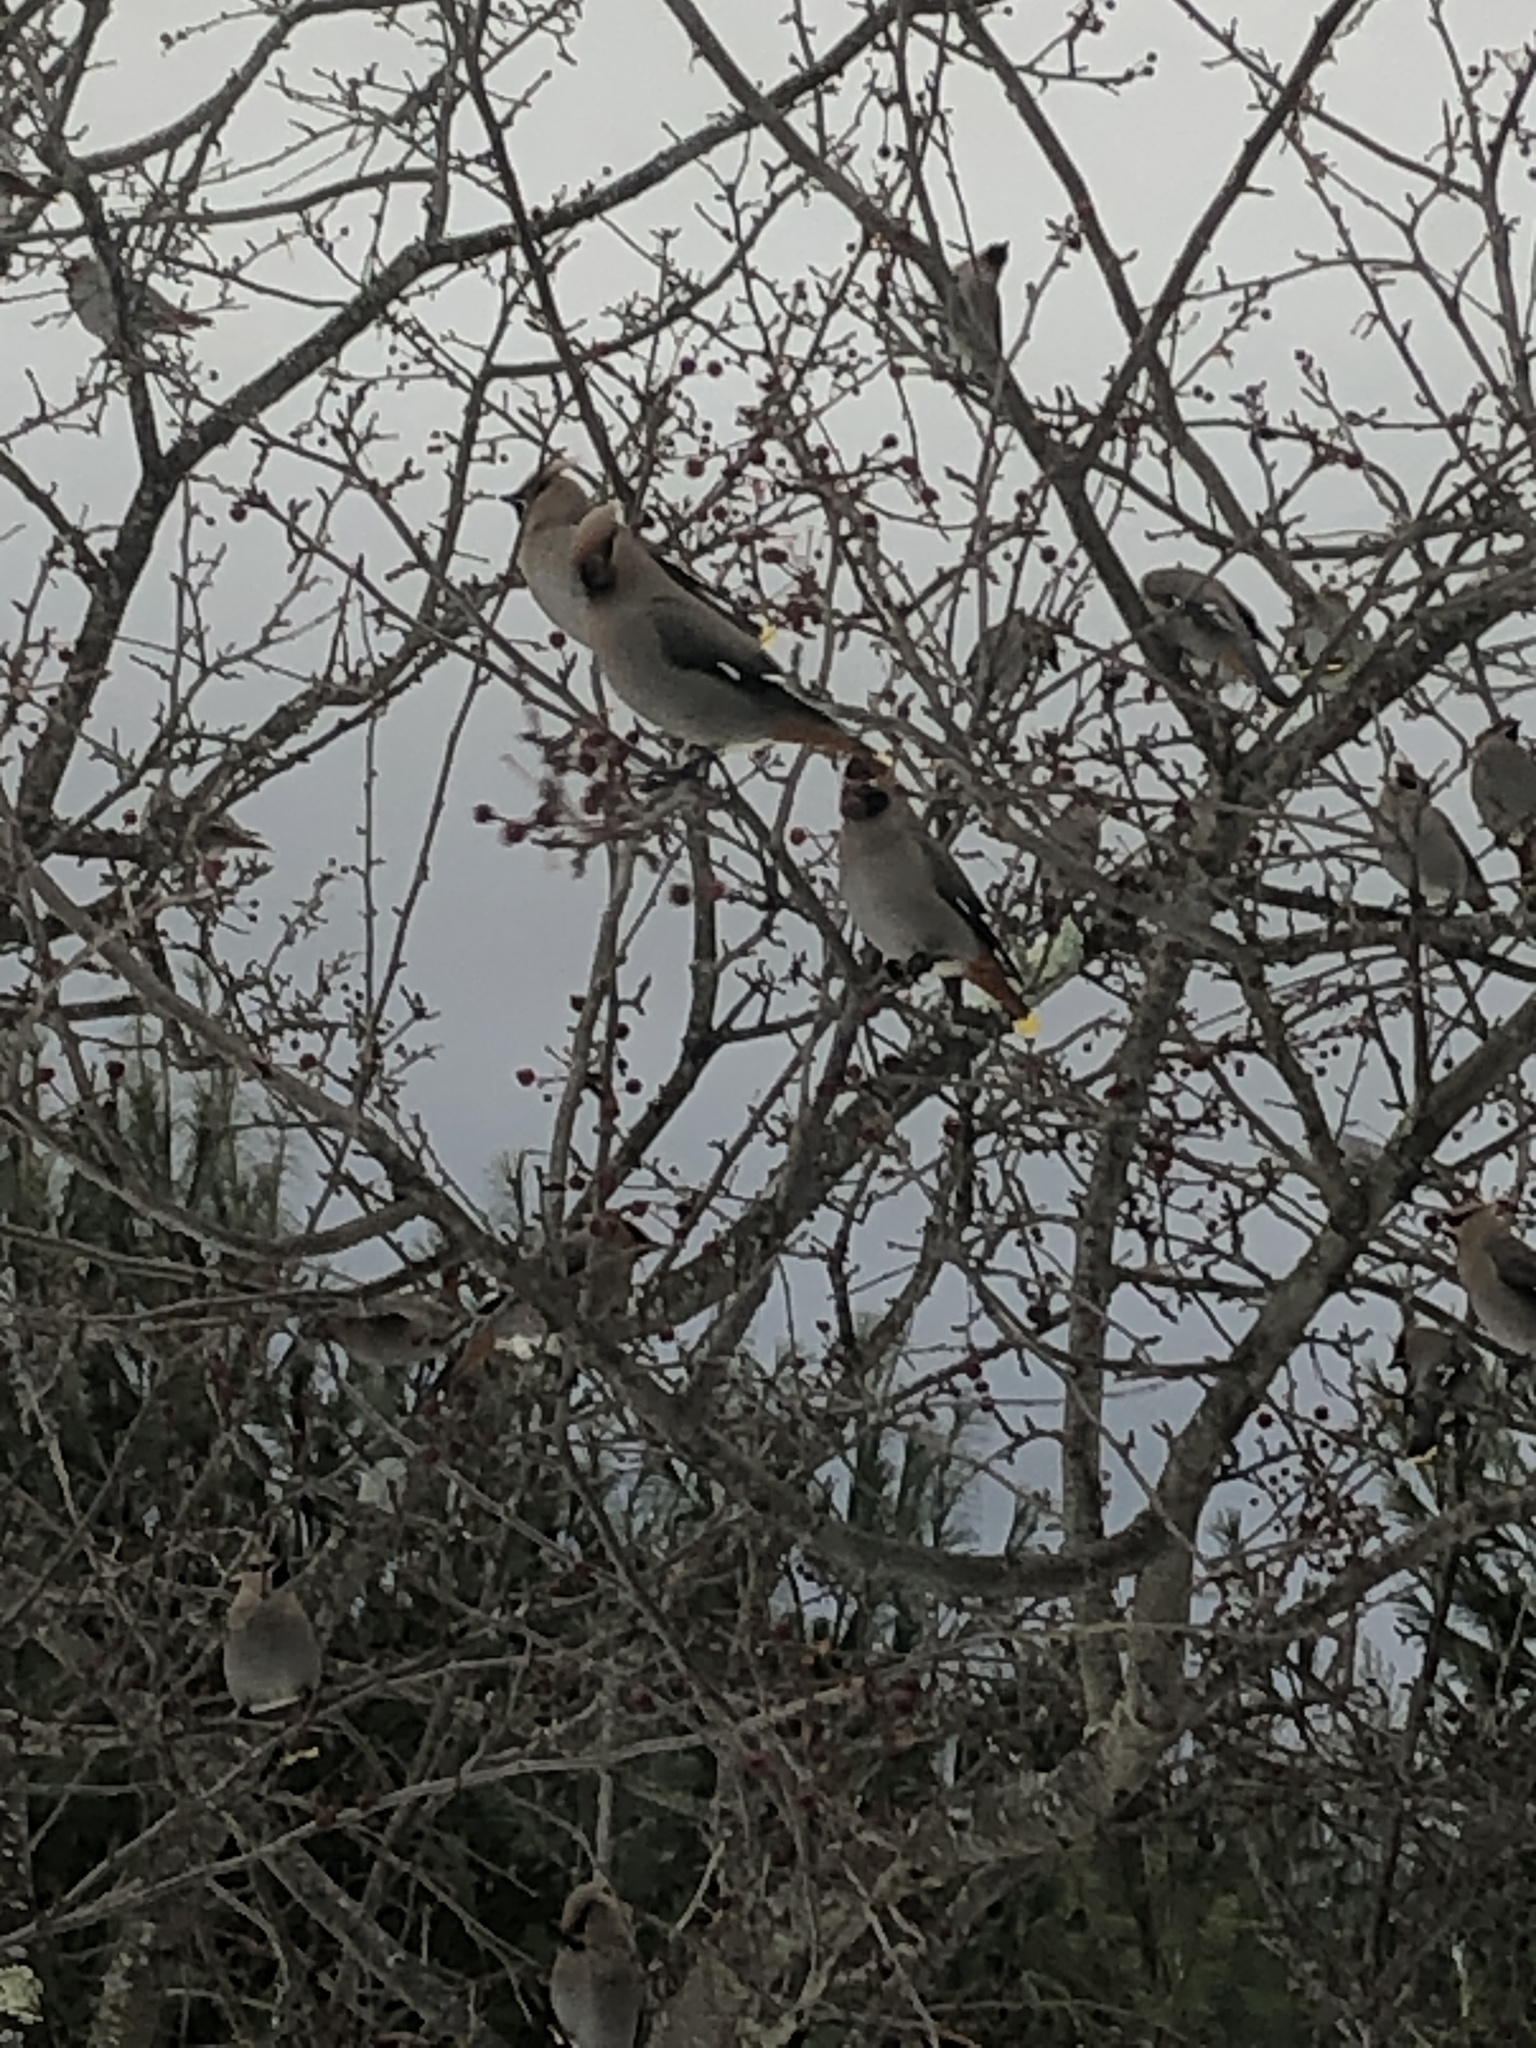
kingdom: Animalia
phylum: Chordata
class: Aves
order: Passeriformes
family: Bombycillidae
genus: Bombycilla
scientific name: Bombycilla garrulus
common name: Bohemian waxwing
